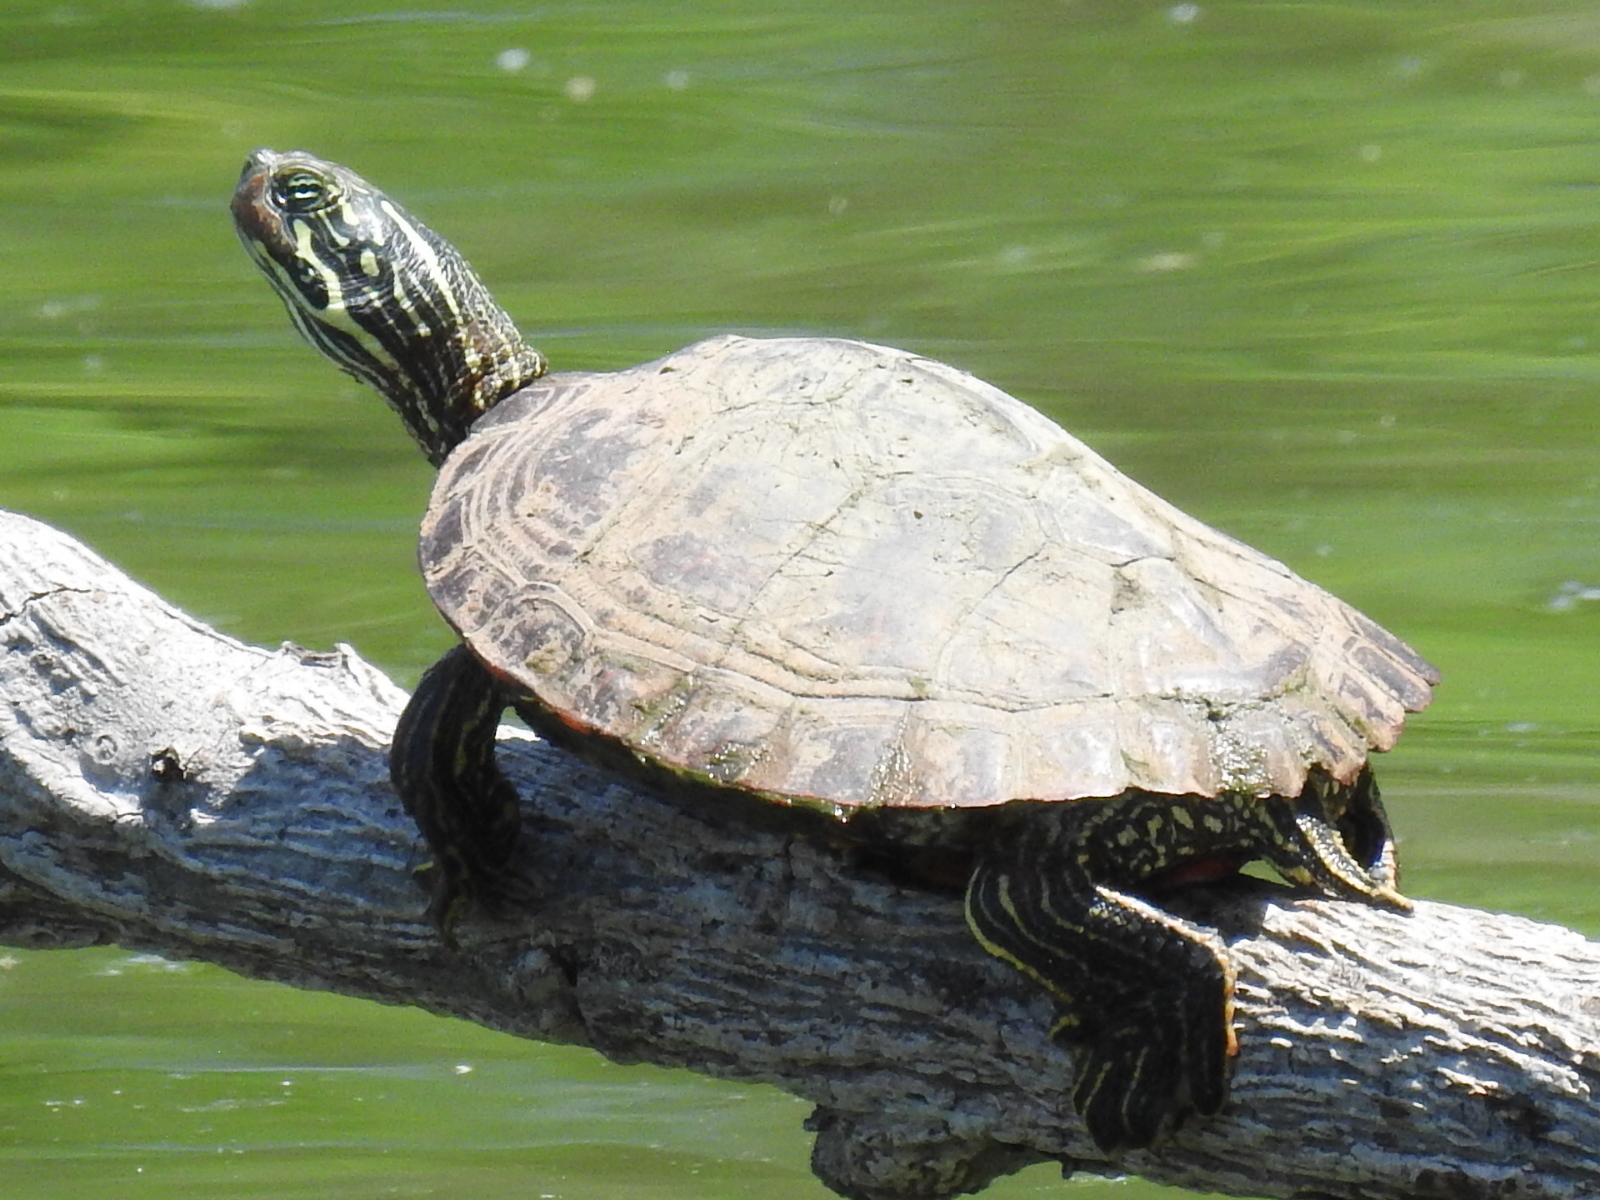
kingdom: Animalia
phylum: Chordata
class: Testudines
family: Emydidae
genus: Pseudemys
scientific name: Pseudemys texana
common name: Texas river cooter
